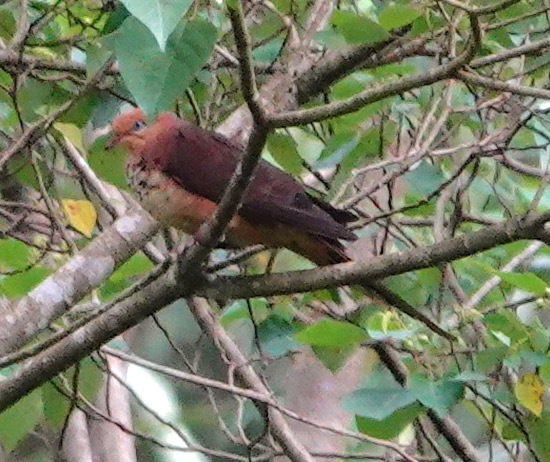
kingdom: Animalia
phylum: Chordata
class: Aves
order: Columbiformes
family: Columbidae
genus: Macropygia
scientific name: Macropygia ruficeps
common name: Little cuckoo-dove
